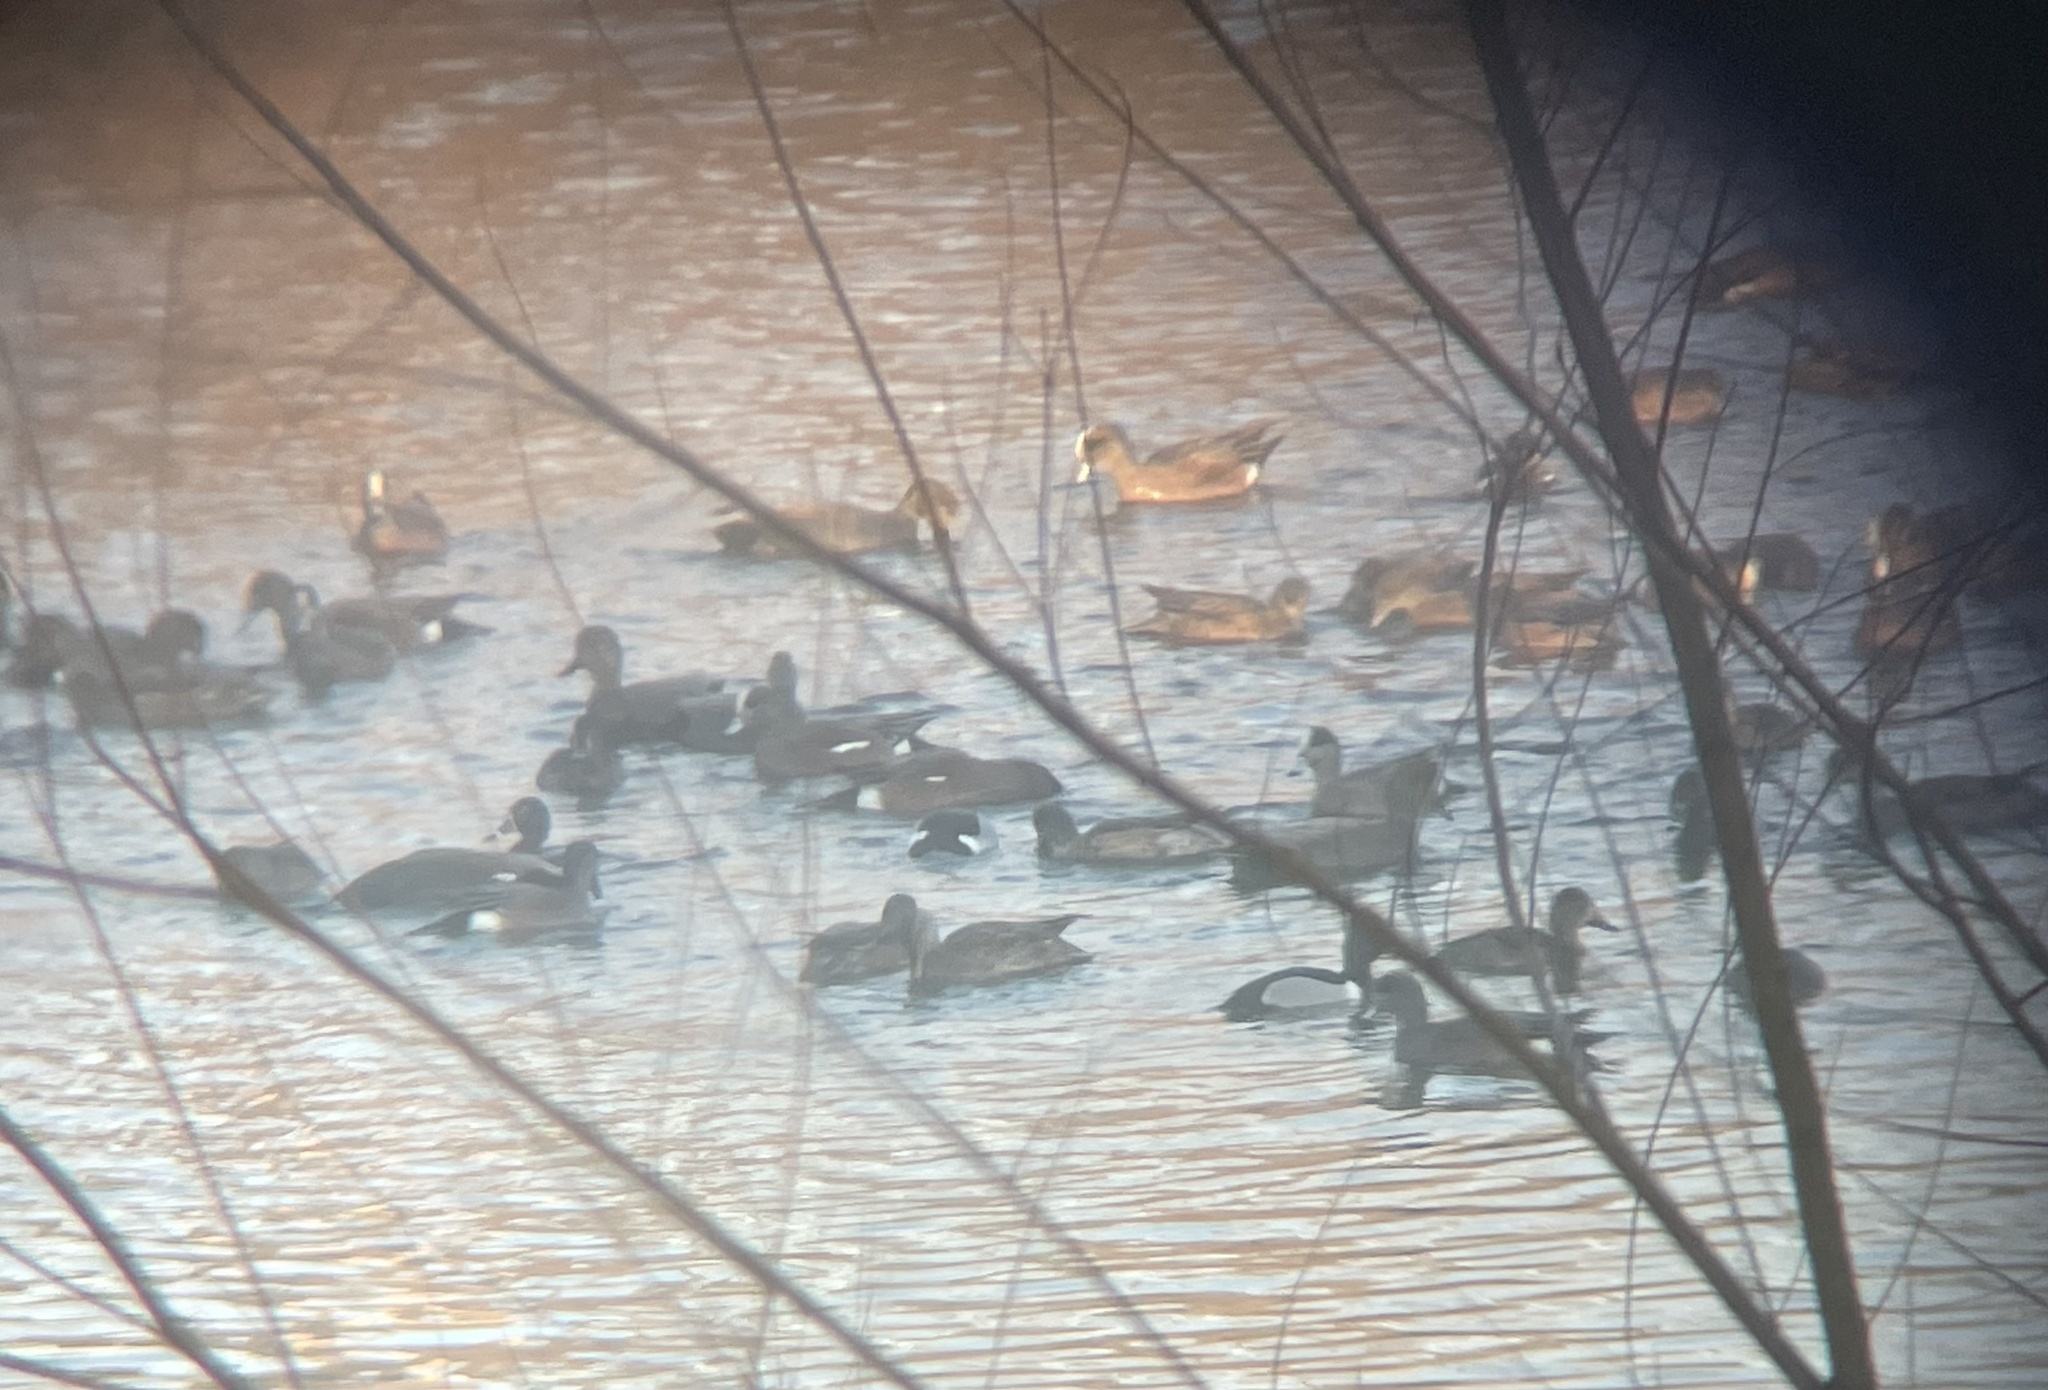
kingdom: Animalia
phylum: Chordata
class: Aves
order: Anseriformes
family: Anatidae
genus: Mareca
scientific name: Mareca americana
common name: American wigeon
